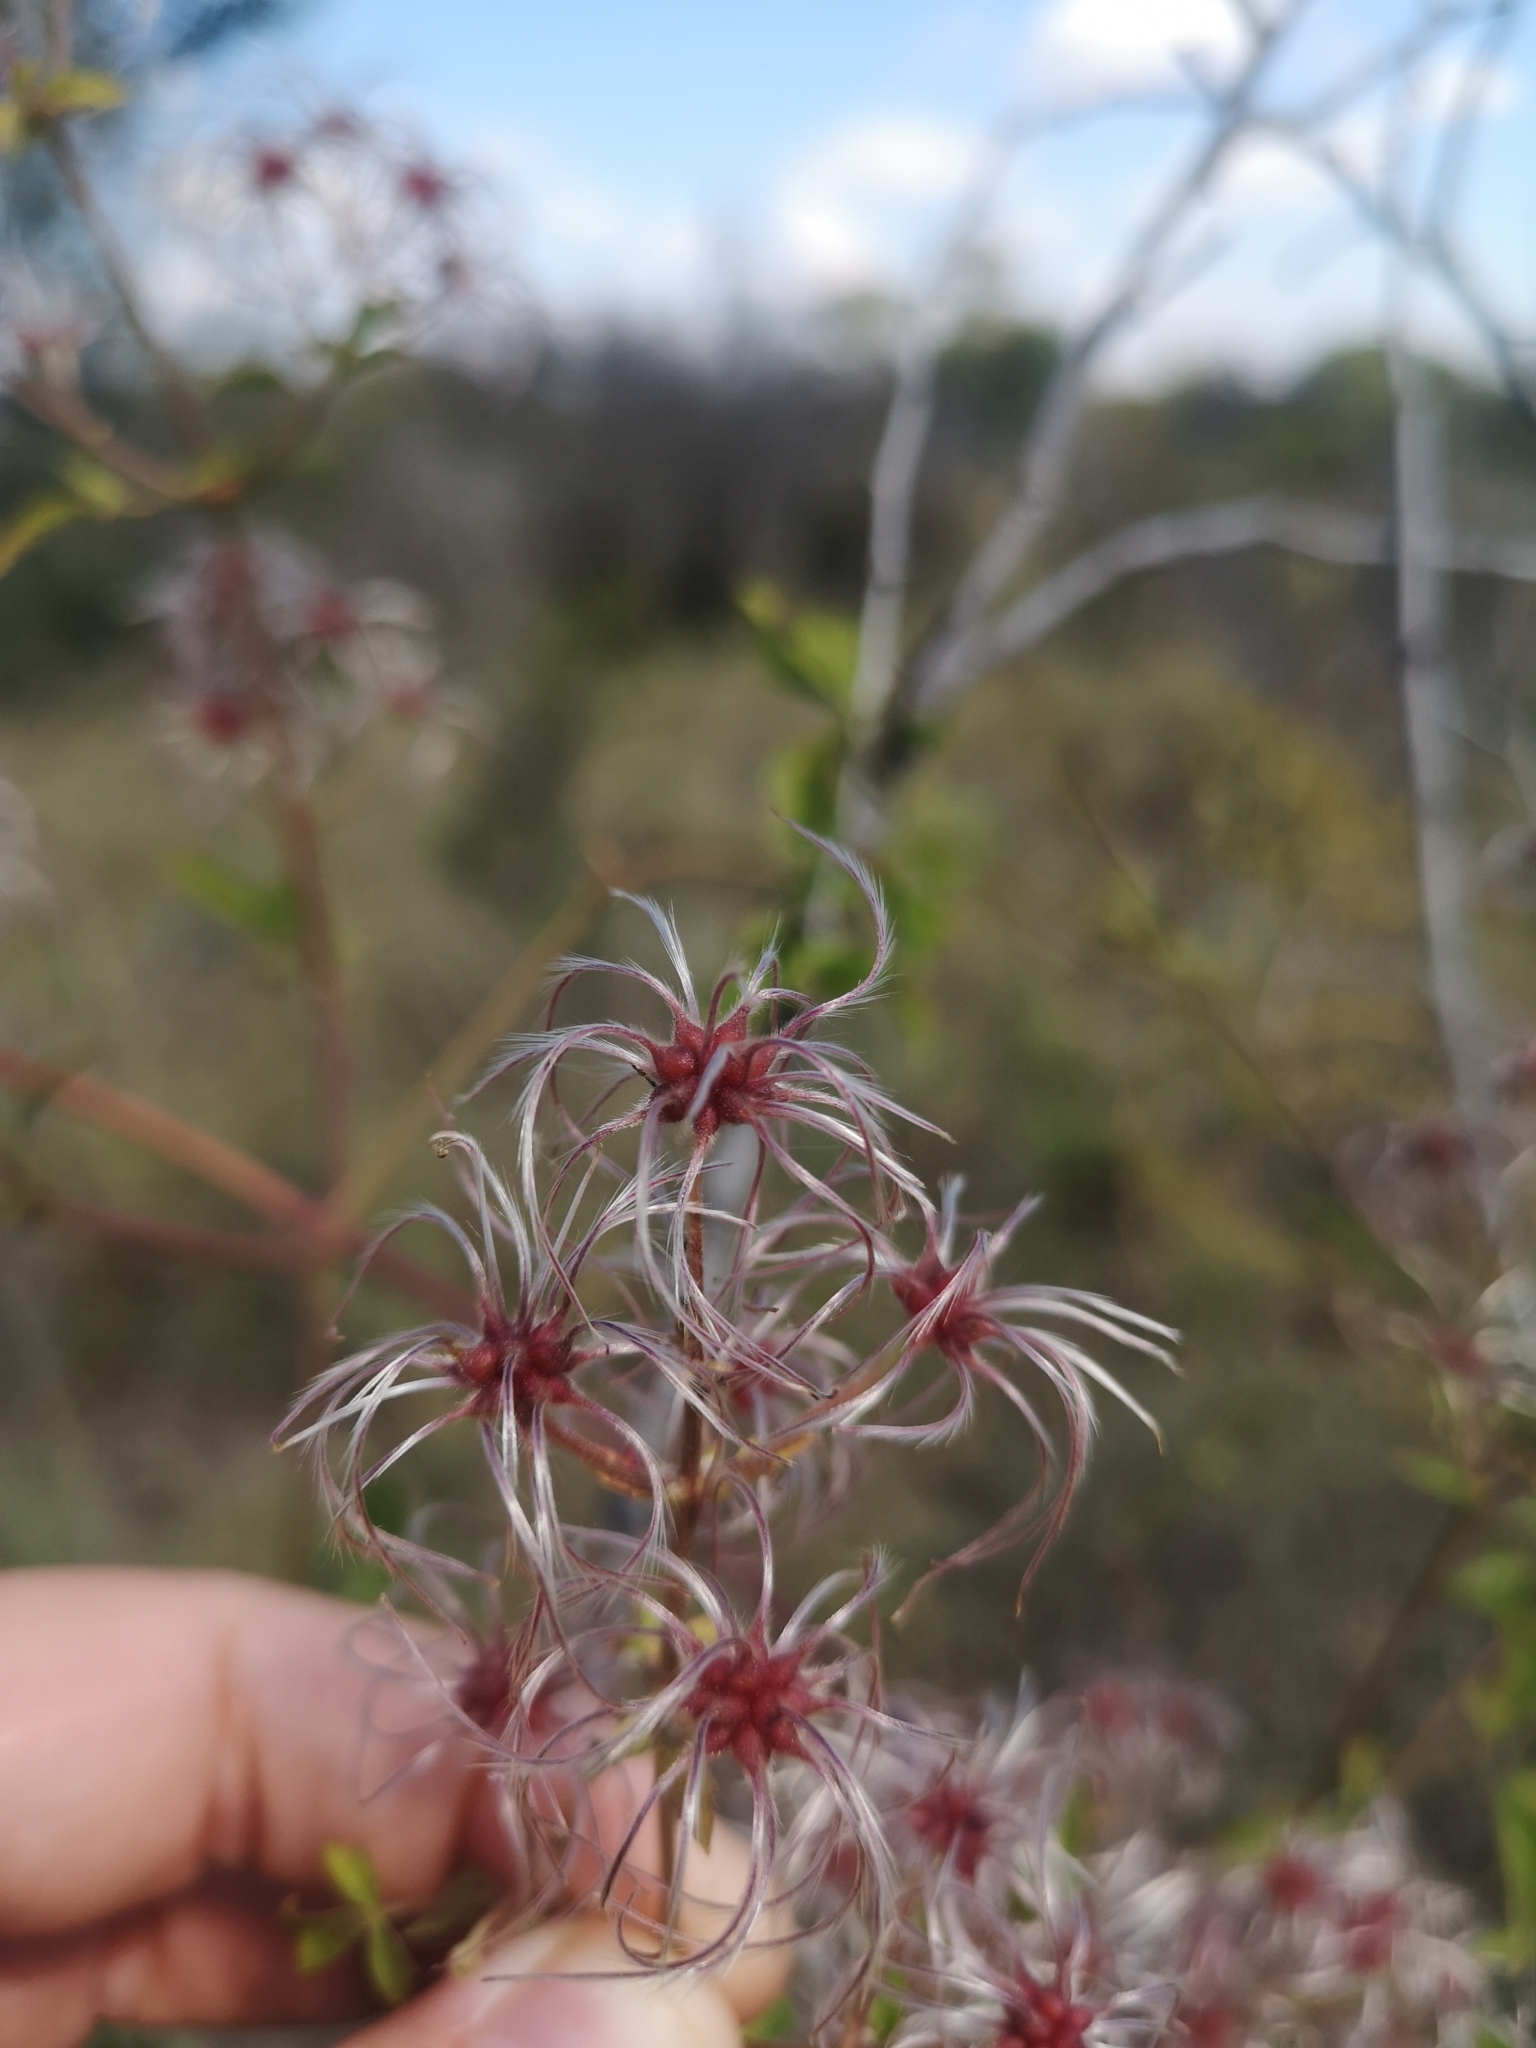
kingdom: Plantae
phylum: Tracheophyta
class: Magnoliopsida
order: Ranunculales
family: Ranunculaceae
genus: Clematis
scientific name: Clematis brachiata
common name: Traveler's-joy
